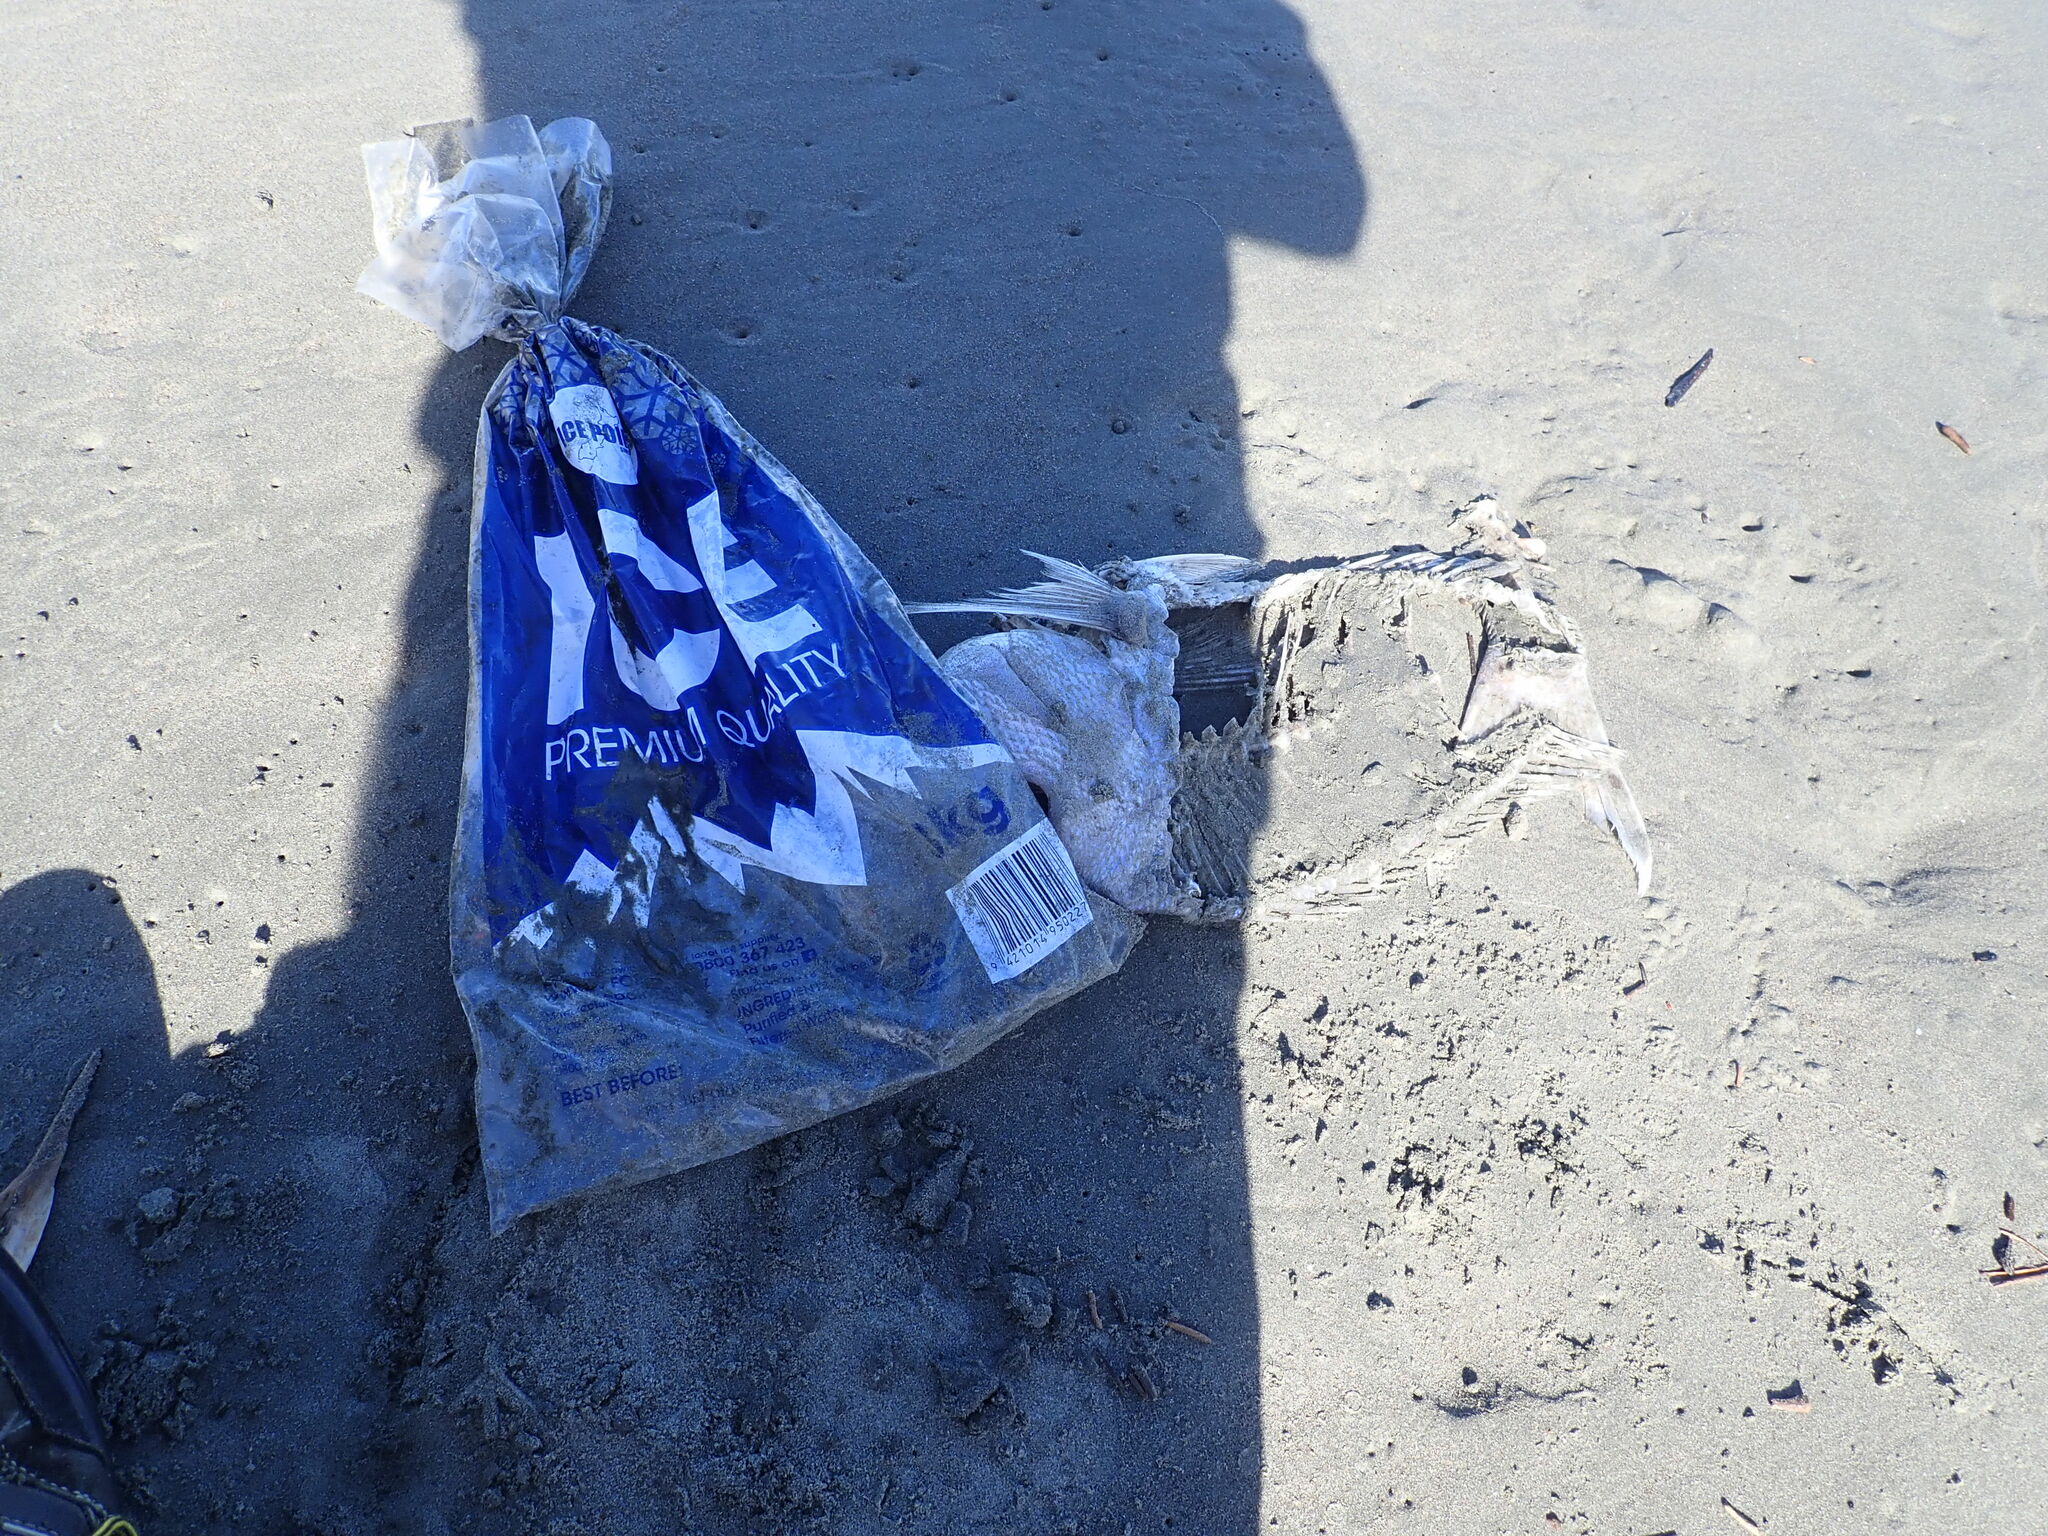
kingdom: Animalia
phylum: Chordata
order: Perciformes
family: Sparidae
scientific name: Sparidae
